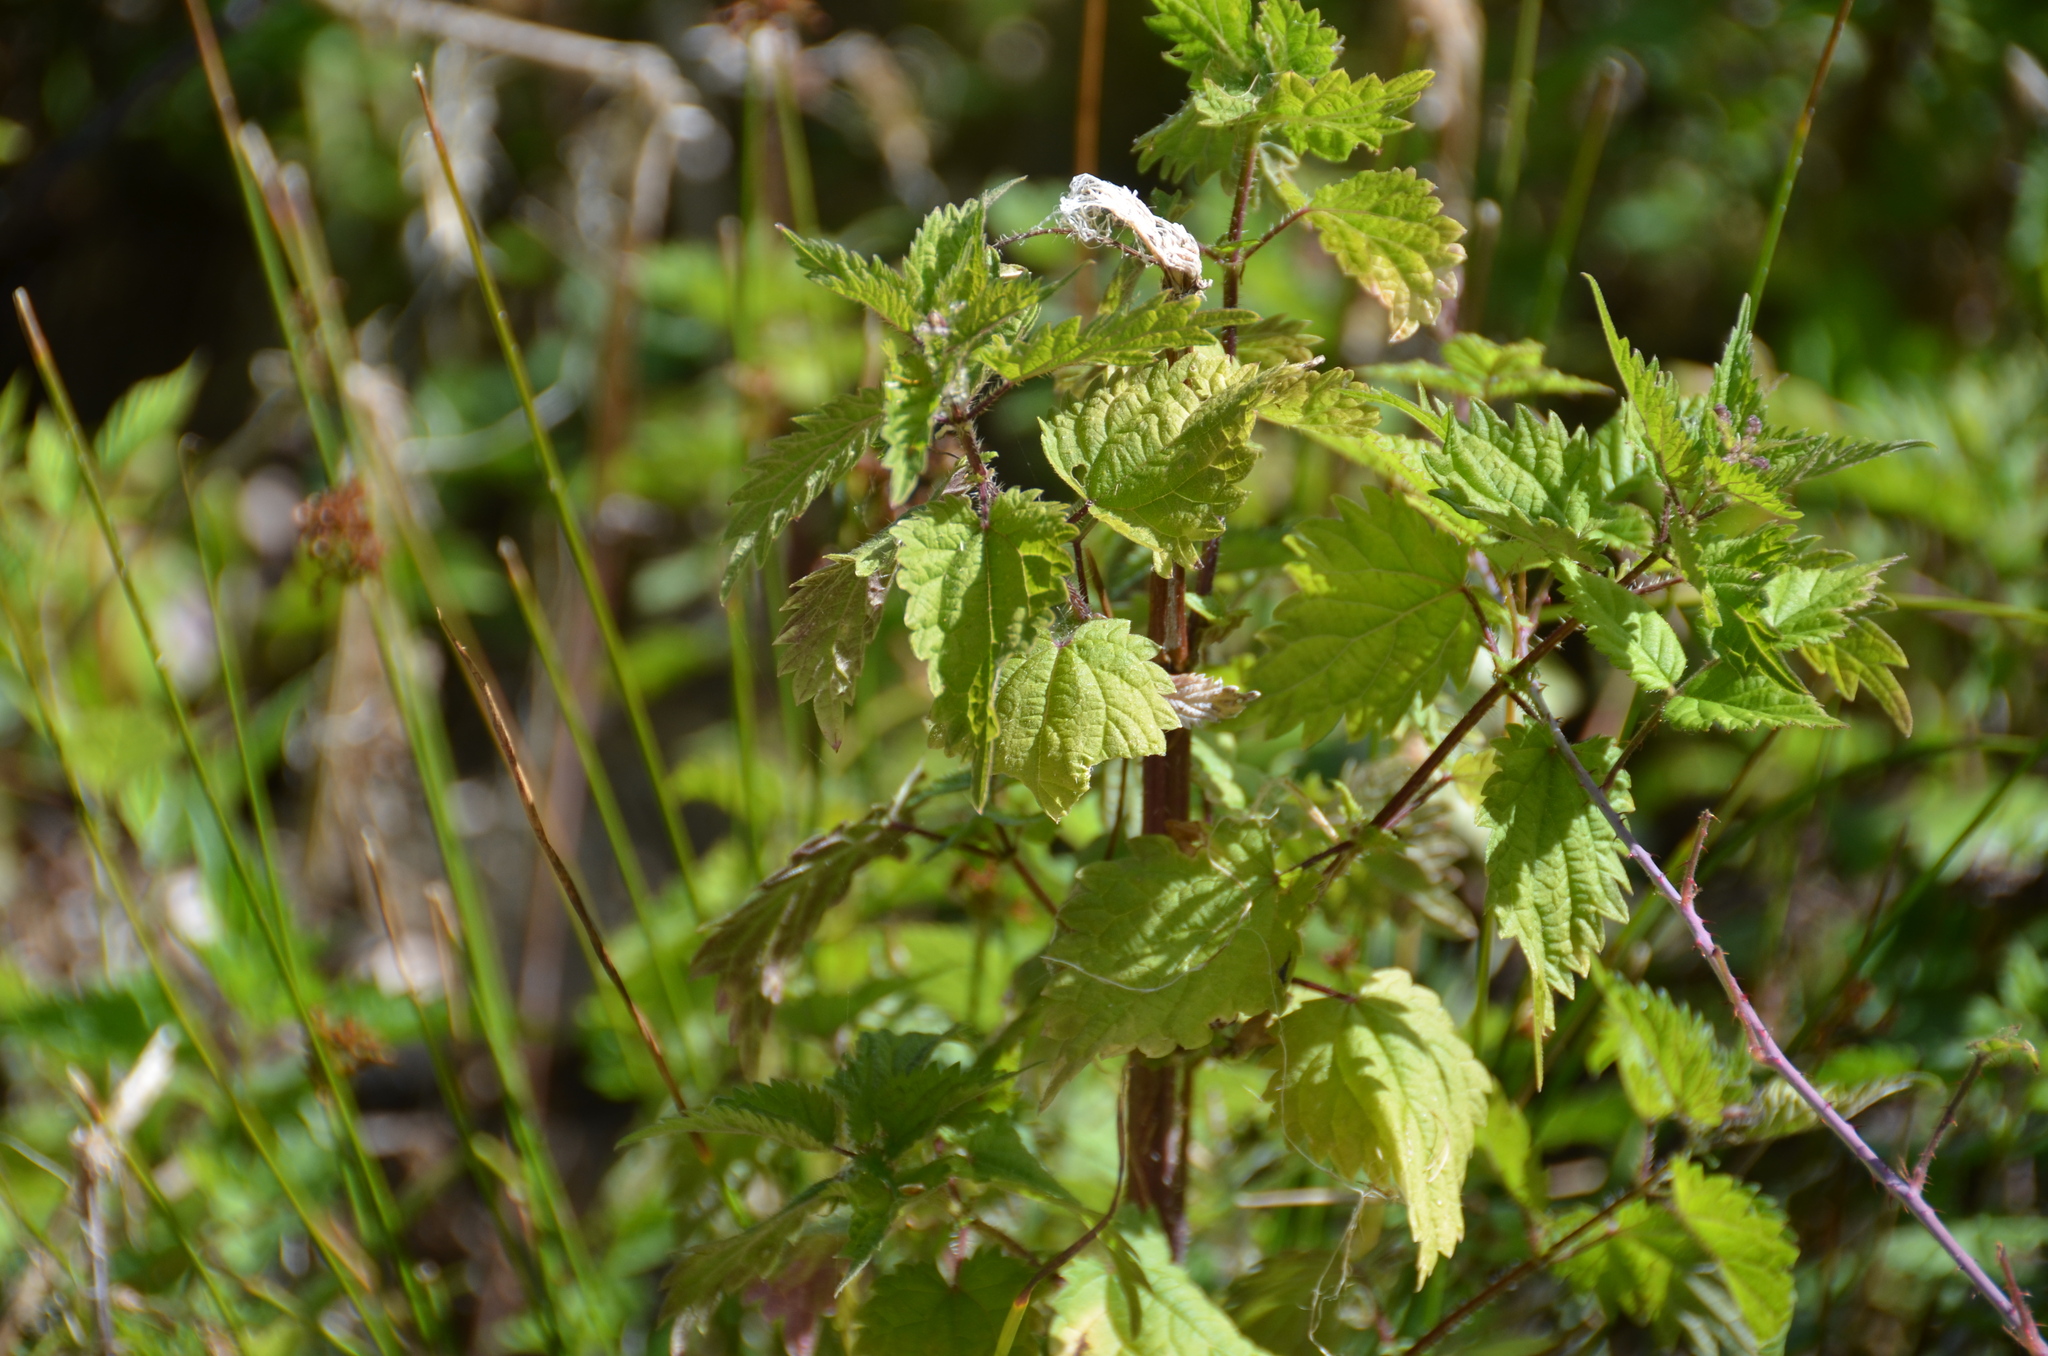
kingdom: Plantae
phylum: Tracheophyta
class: Magnoliopsida
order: Rosales
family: Urticaceae
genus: Urtica
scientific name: Urtica dioica
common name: Common nettle
